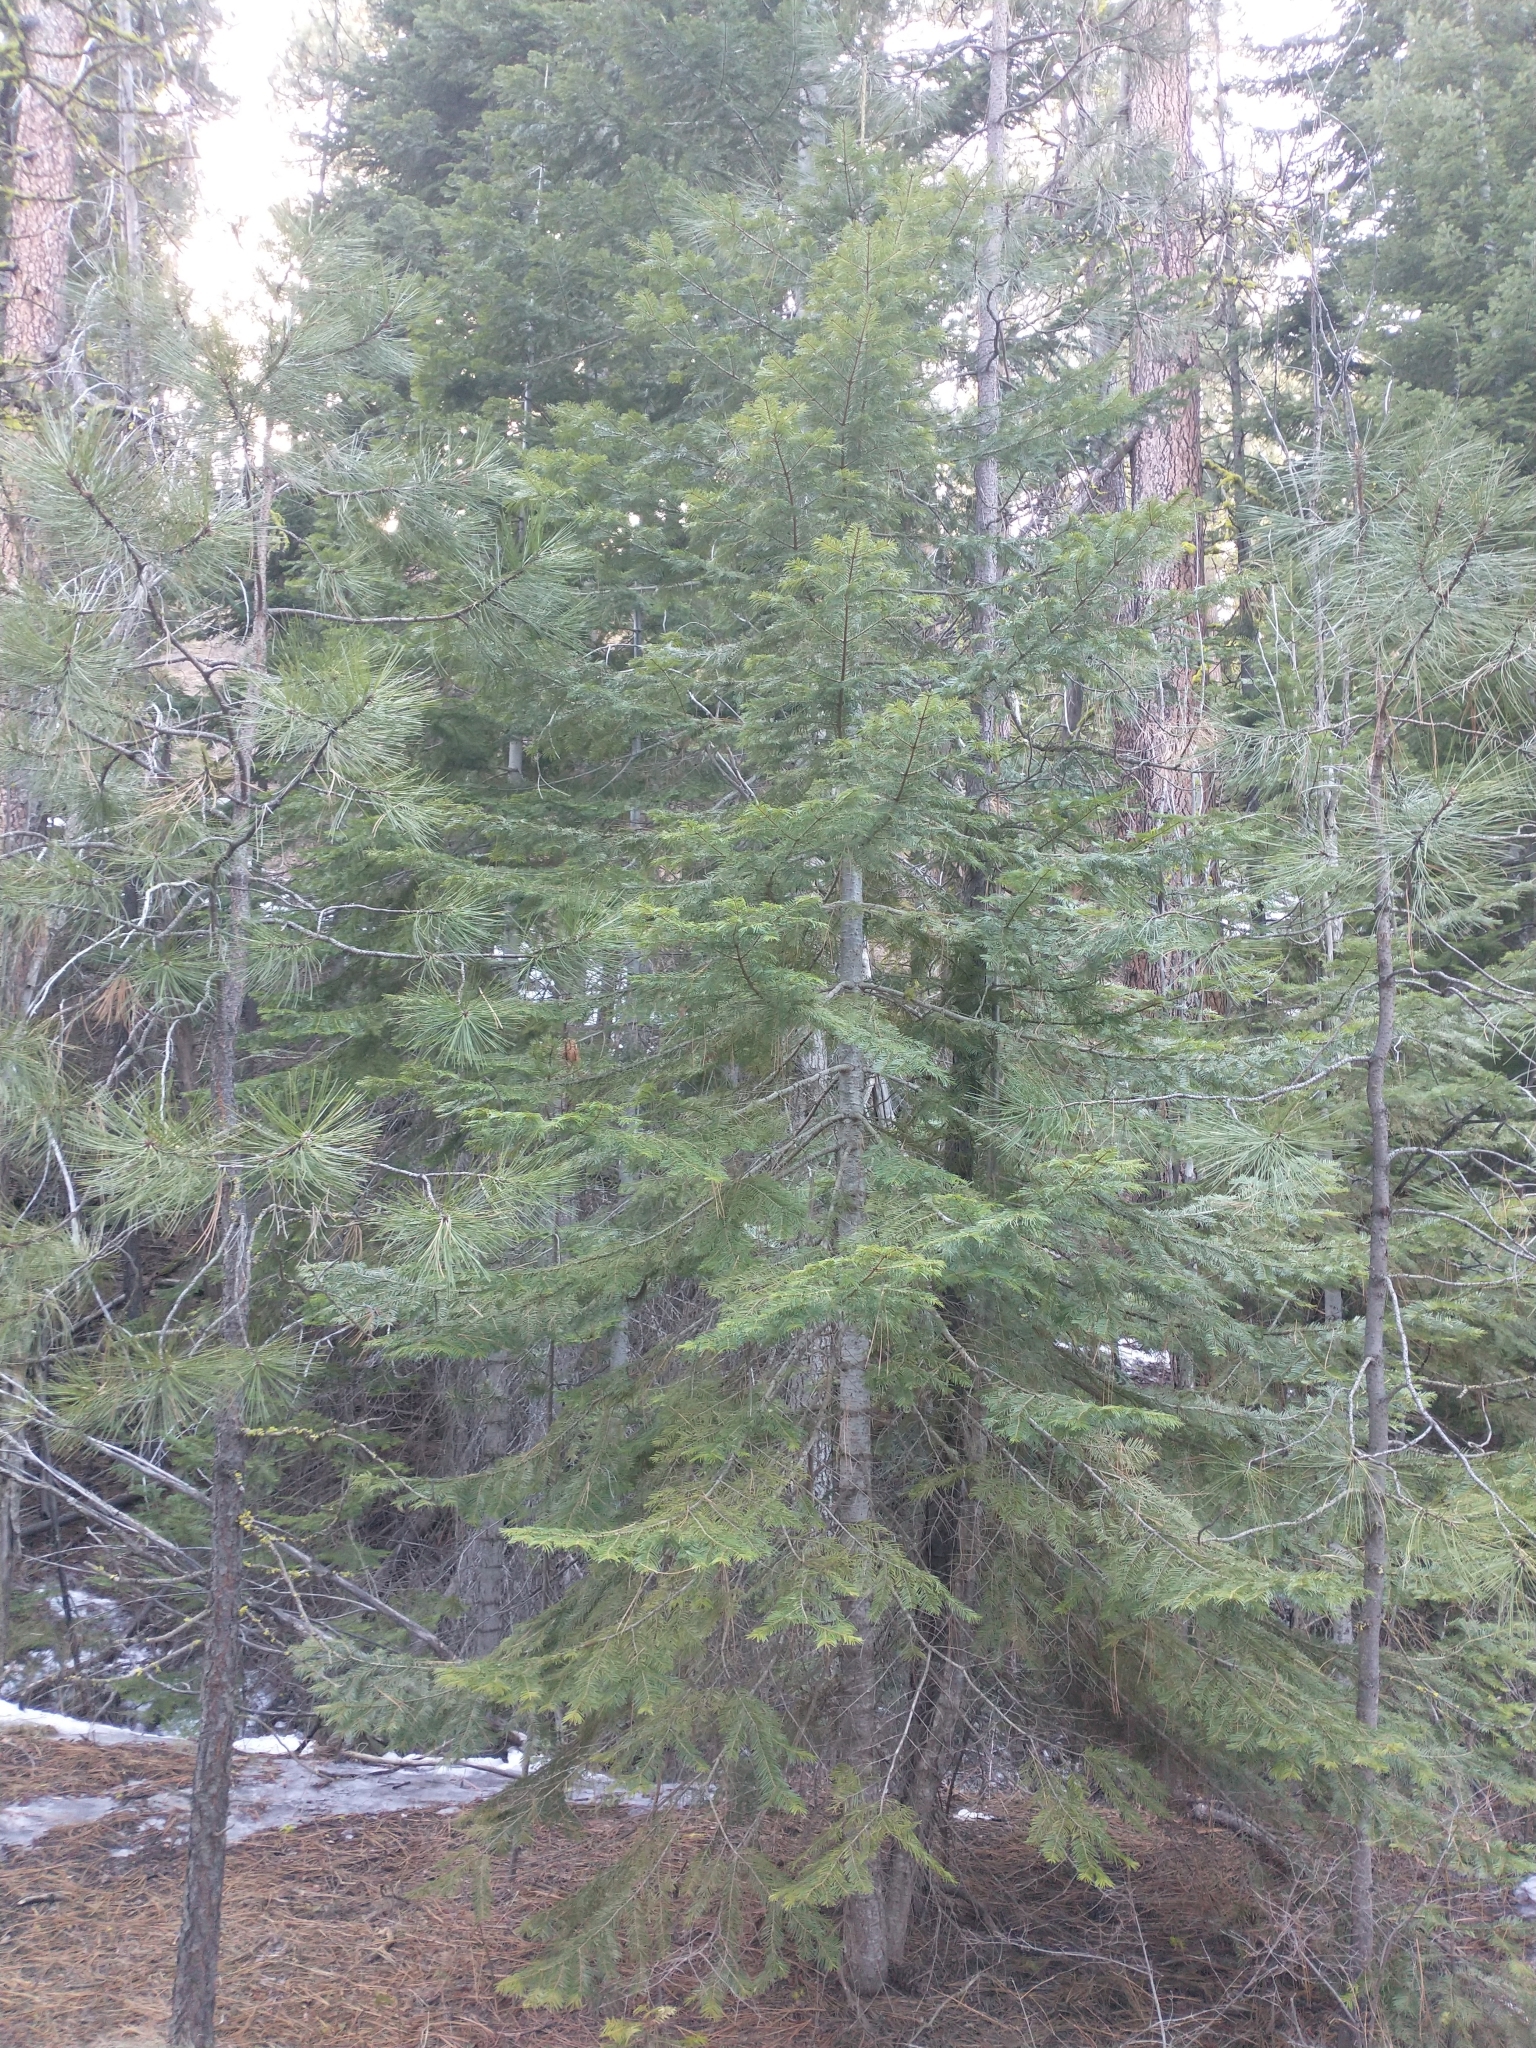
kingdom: Plantae
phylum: Tracheophyta
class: Pinopsida
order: Pinales
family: Pinaceae
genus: Abies
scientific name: Abies concolor
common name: Colorado fir
